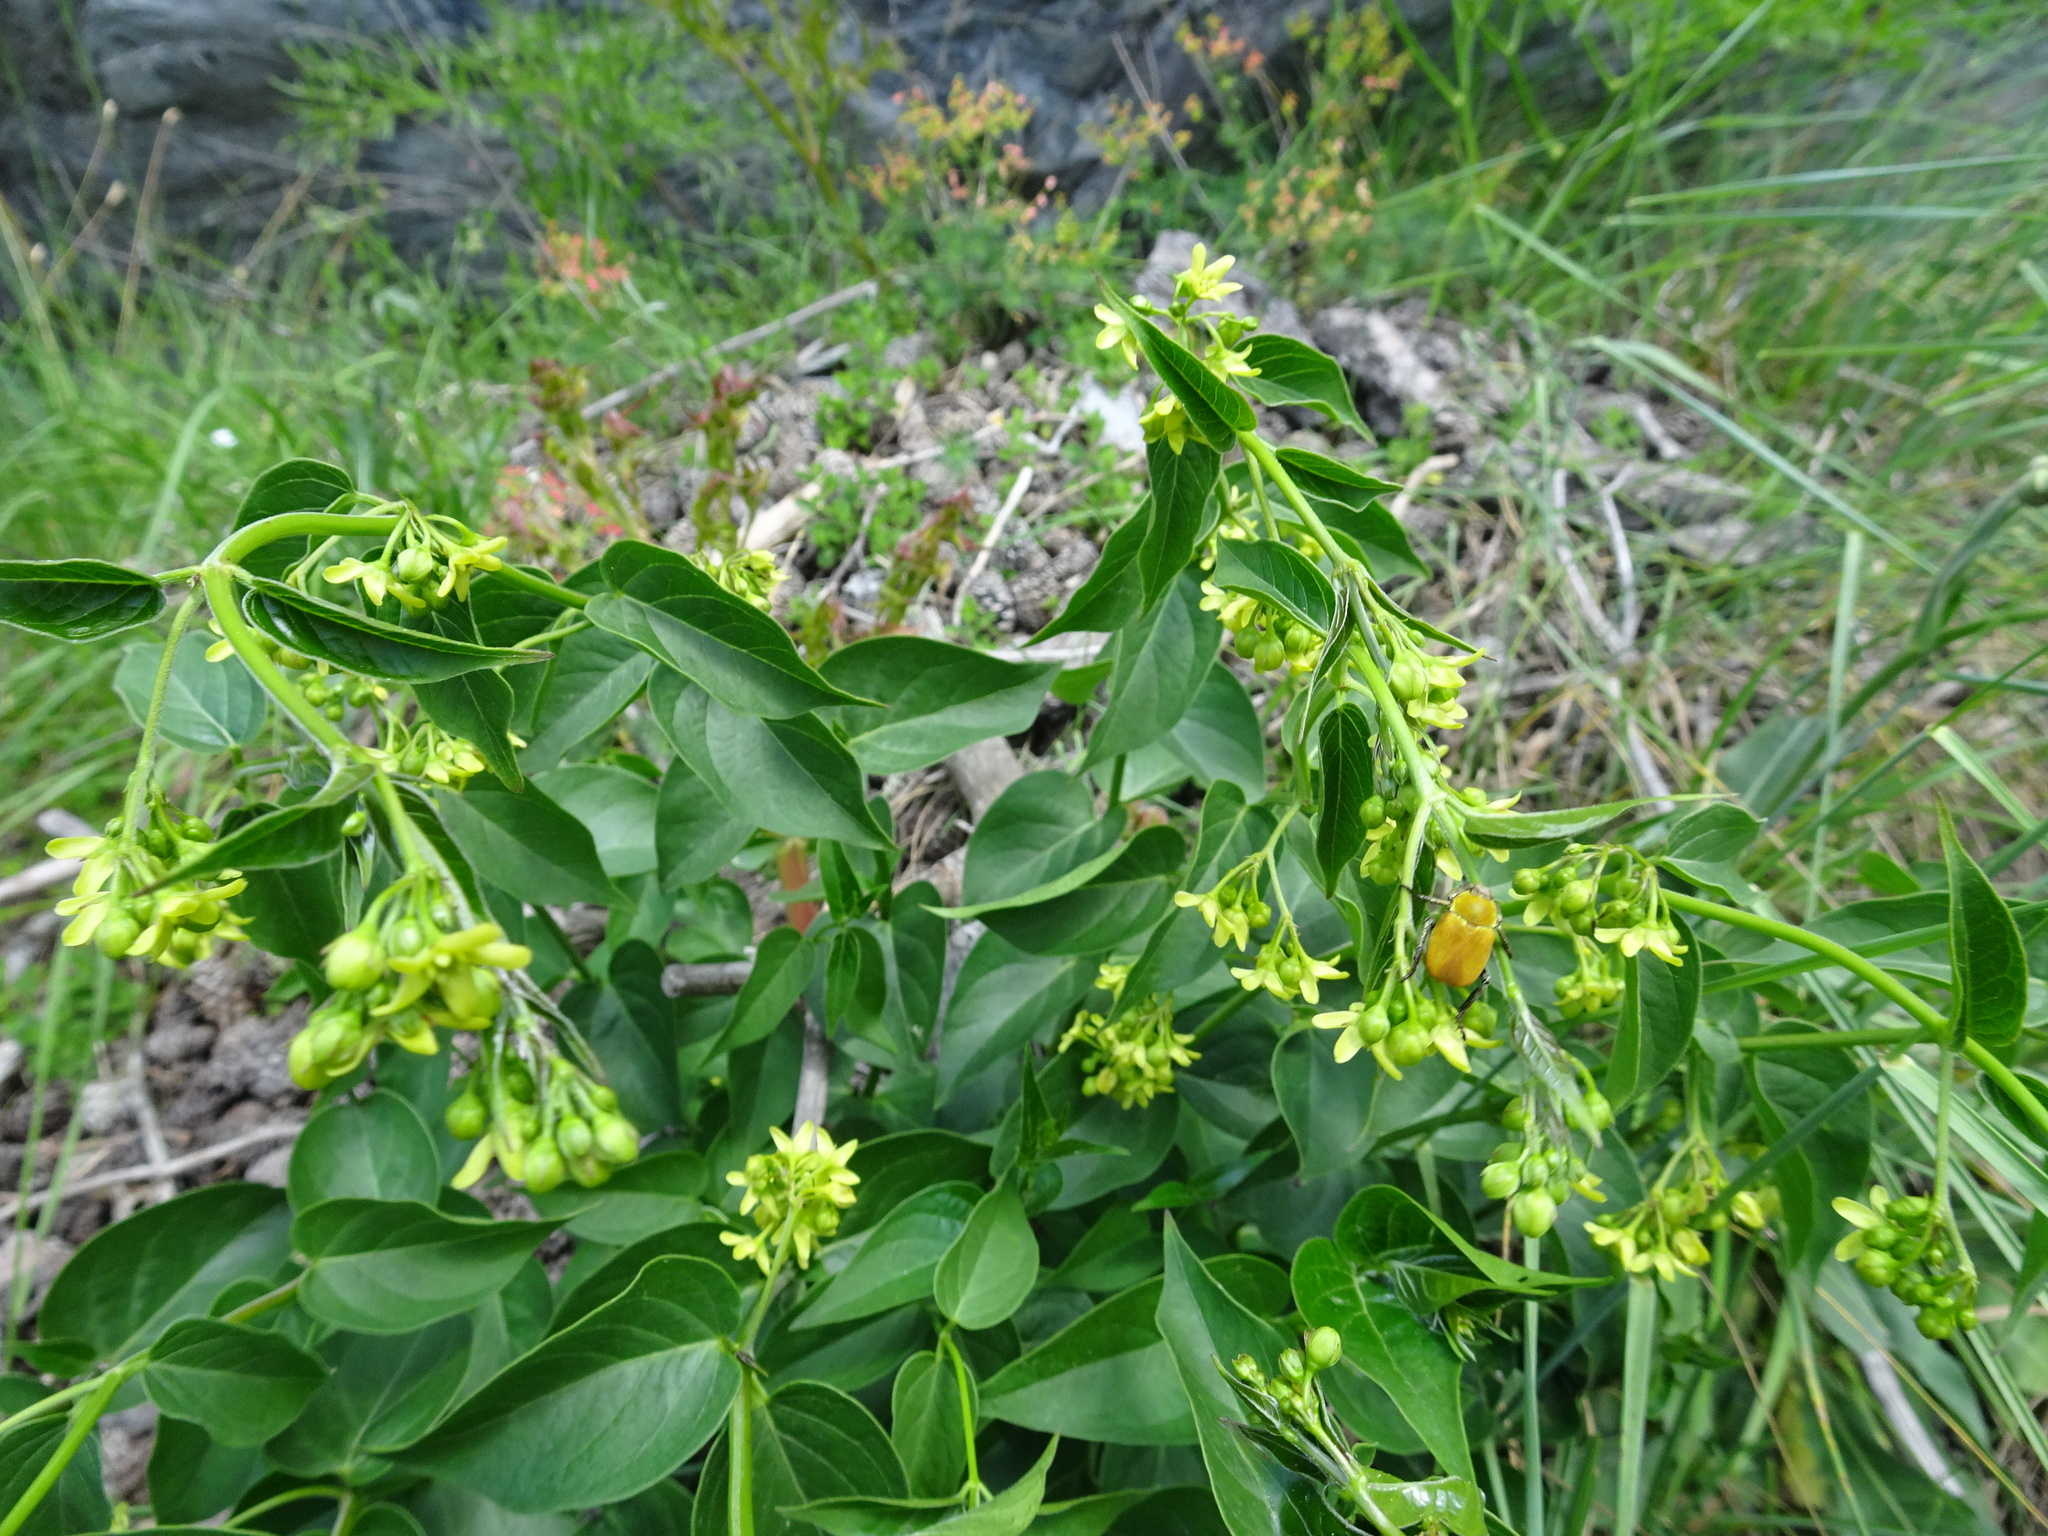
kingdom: Plantae
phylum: Tracheophyta
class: Magnoliopsida
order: Gentianales
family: Apocynaceae
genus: Vincetoxicum
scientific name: Vincetoxicum hirundinaria
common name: White swallowwort
